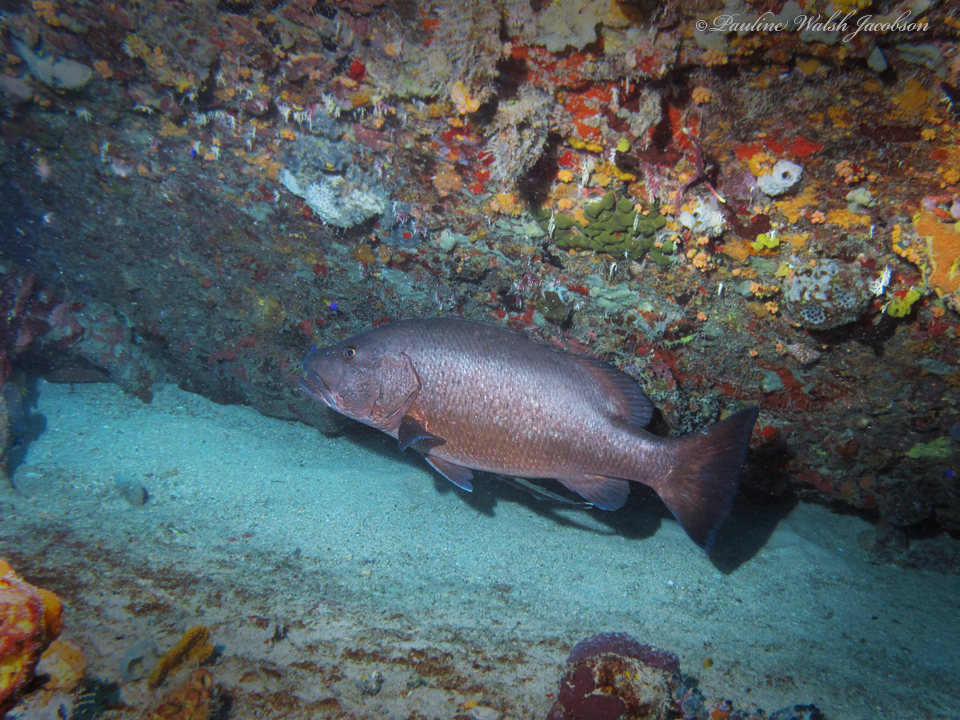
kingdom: Animalia
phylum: Chordata
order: Perciformes
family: Lutjanidae
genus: Lutjanus
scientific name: Lutjanus cyanopterus
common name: Cubera snapper
